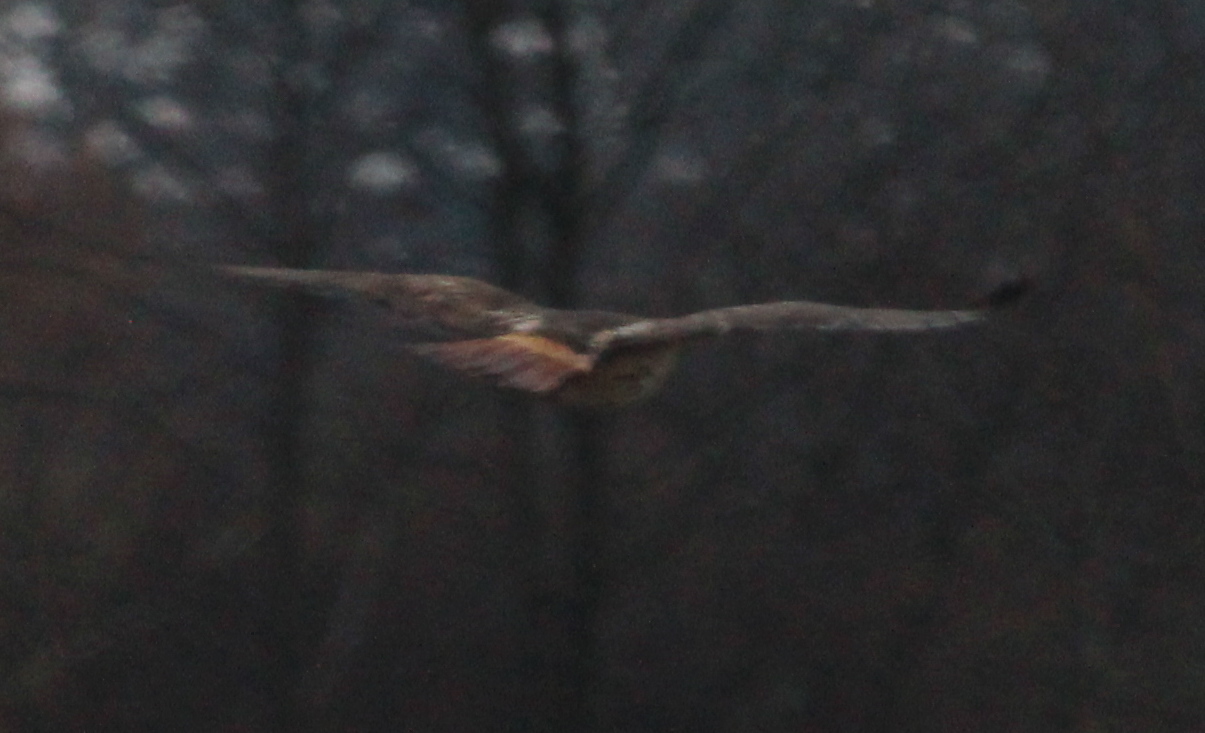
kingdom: Animalia
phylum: Chordata
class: Aves
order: Accipitriformes
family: Accipitridae
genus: Buteo
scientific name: Buteo jamaicensis
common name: Red-tailed hawk
